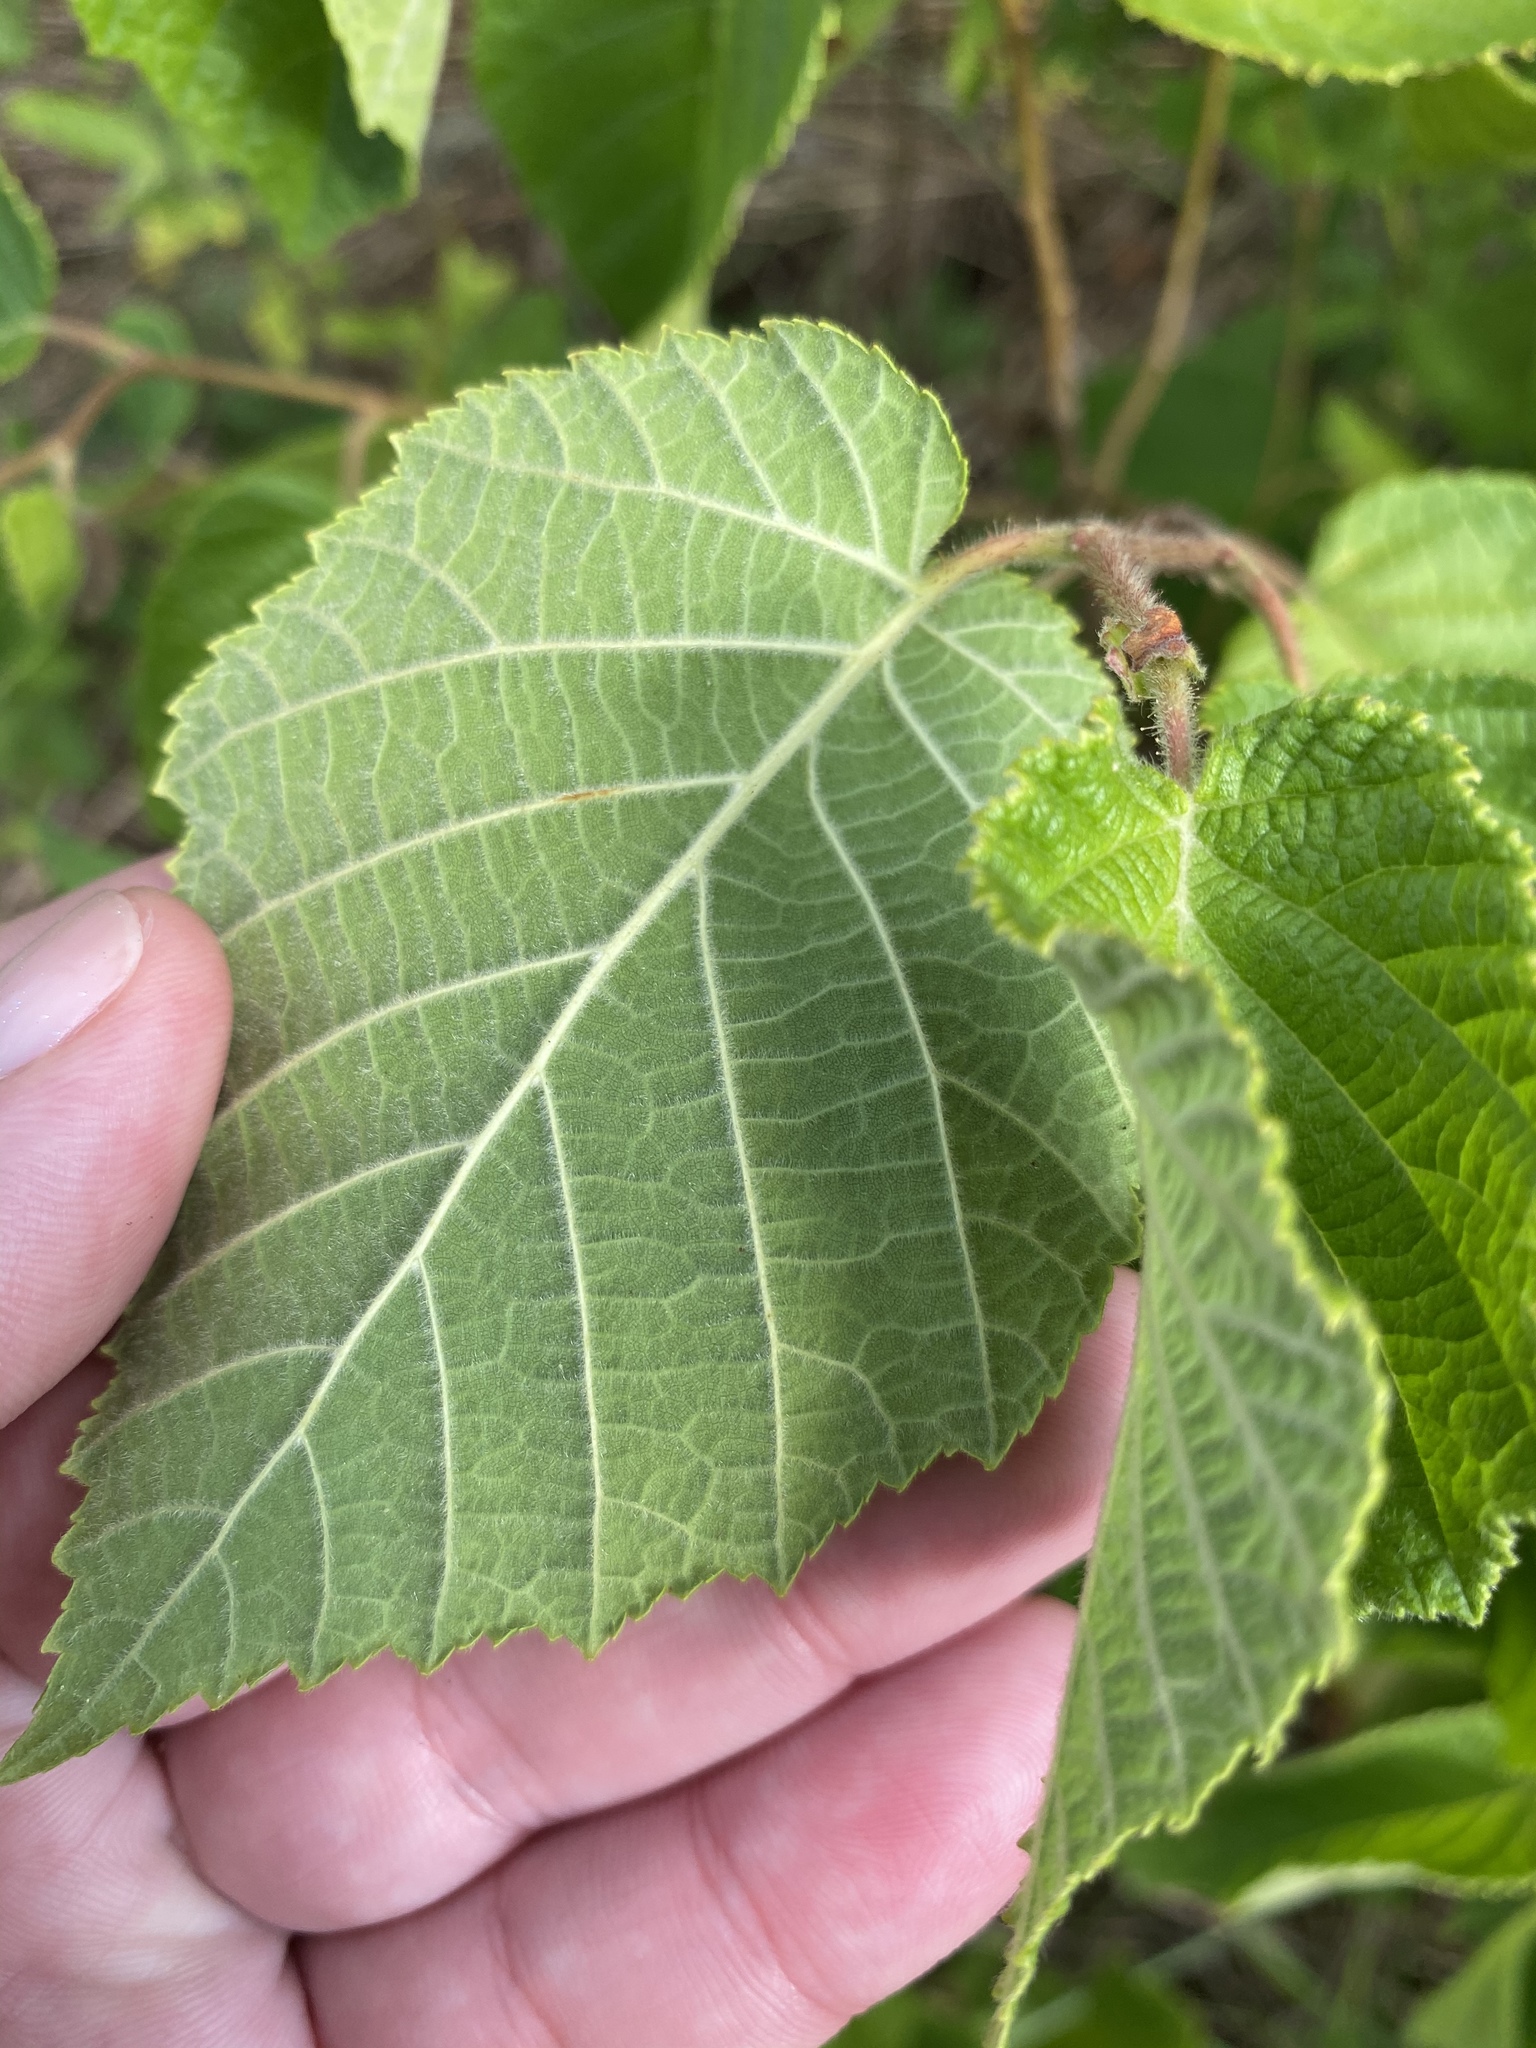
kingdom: Plantae
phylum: Tracheophyta
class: Magnoliopsida
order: Fagales
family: Betulaceae
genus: Corylus
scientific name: Corylus americana
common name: American hazel
